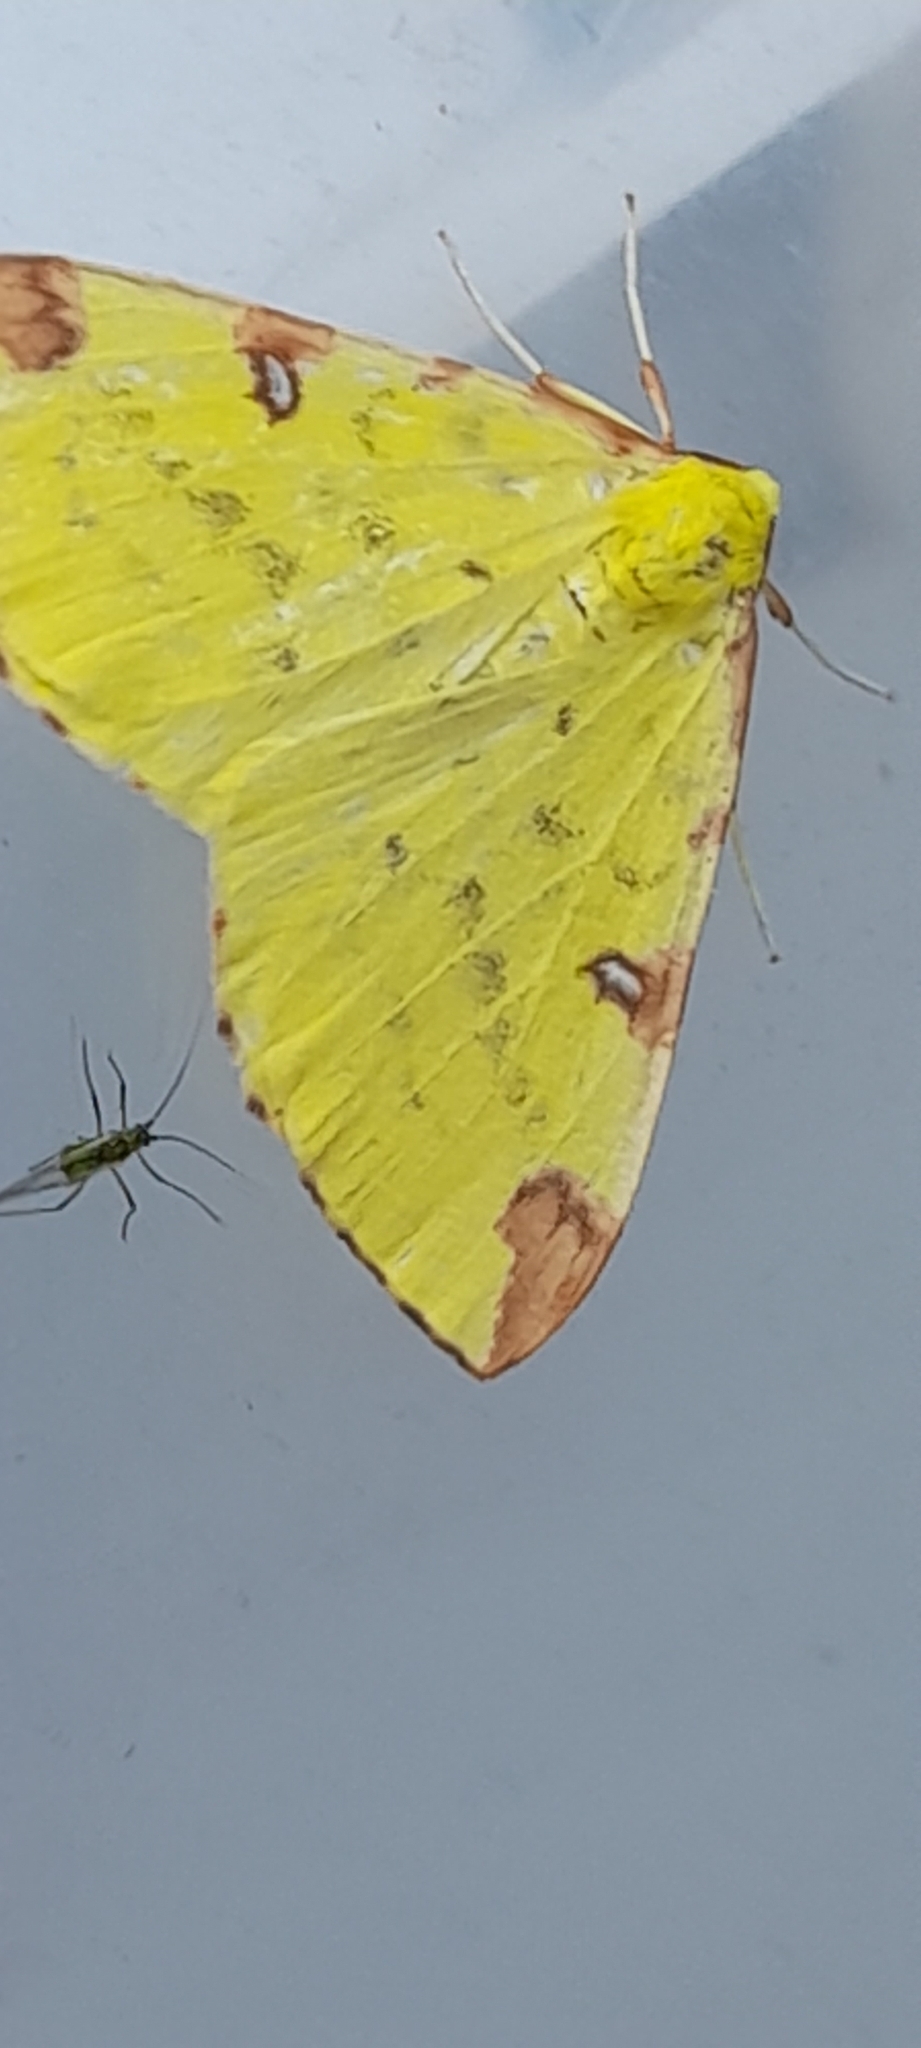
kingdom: Animalia
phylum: Arthropoda
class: Insecta
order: Lepidoptera
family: Geometridae
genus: Opisthograptis
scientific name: Opisthograptis luteolata
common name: Brimstone moth
